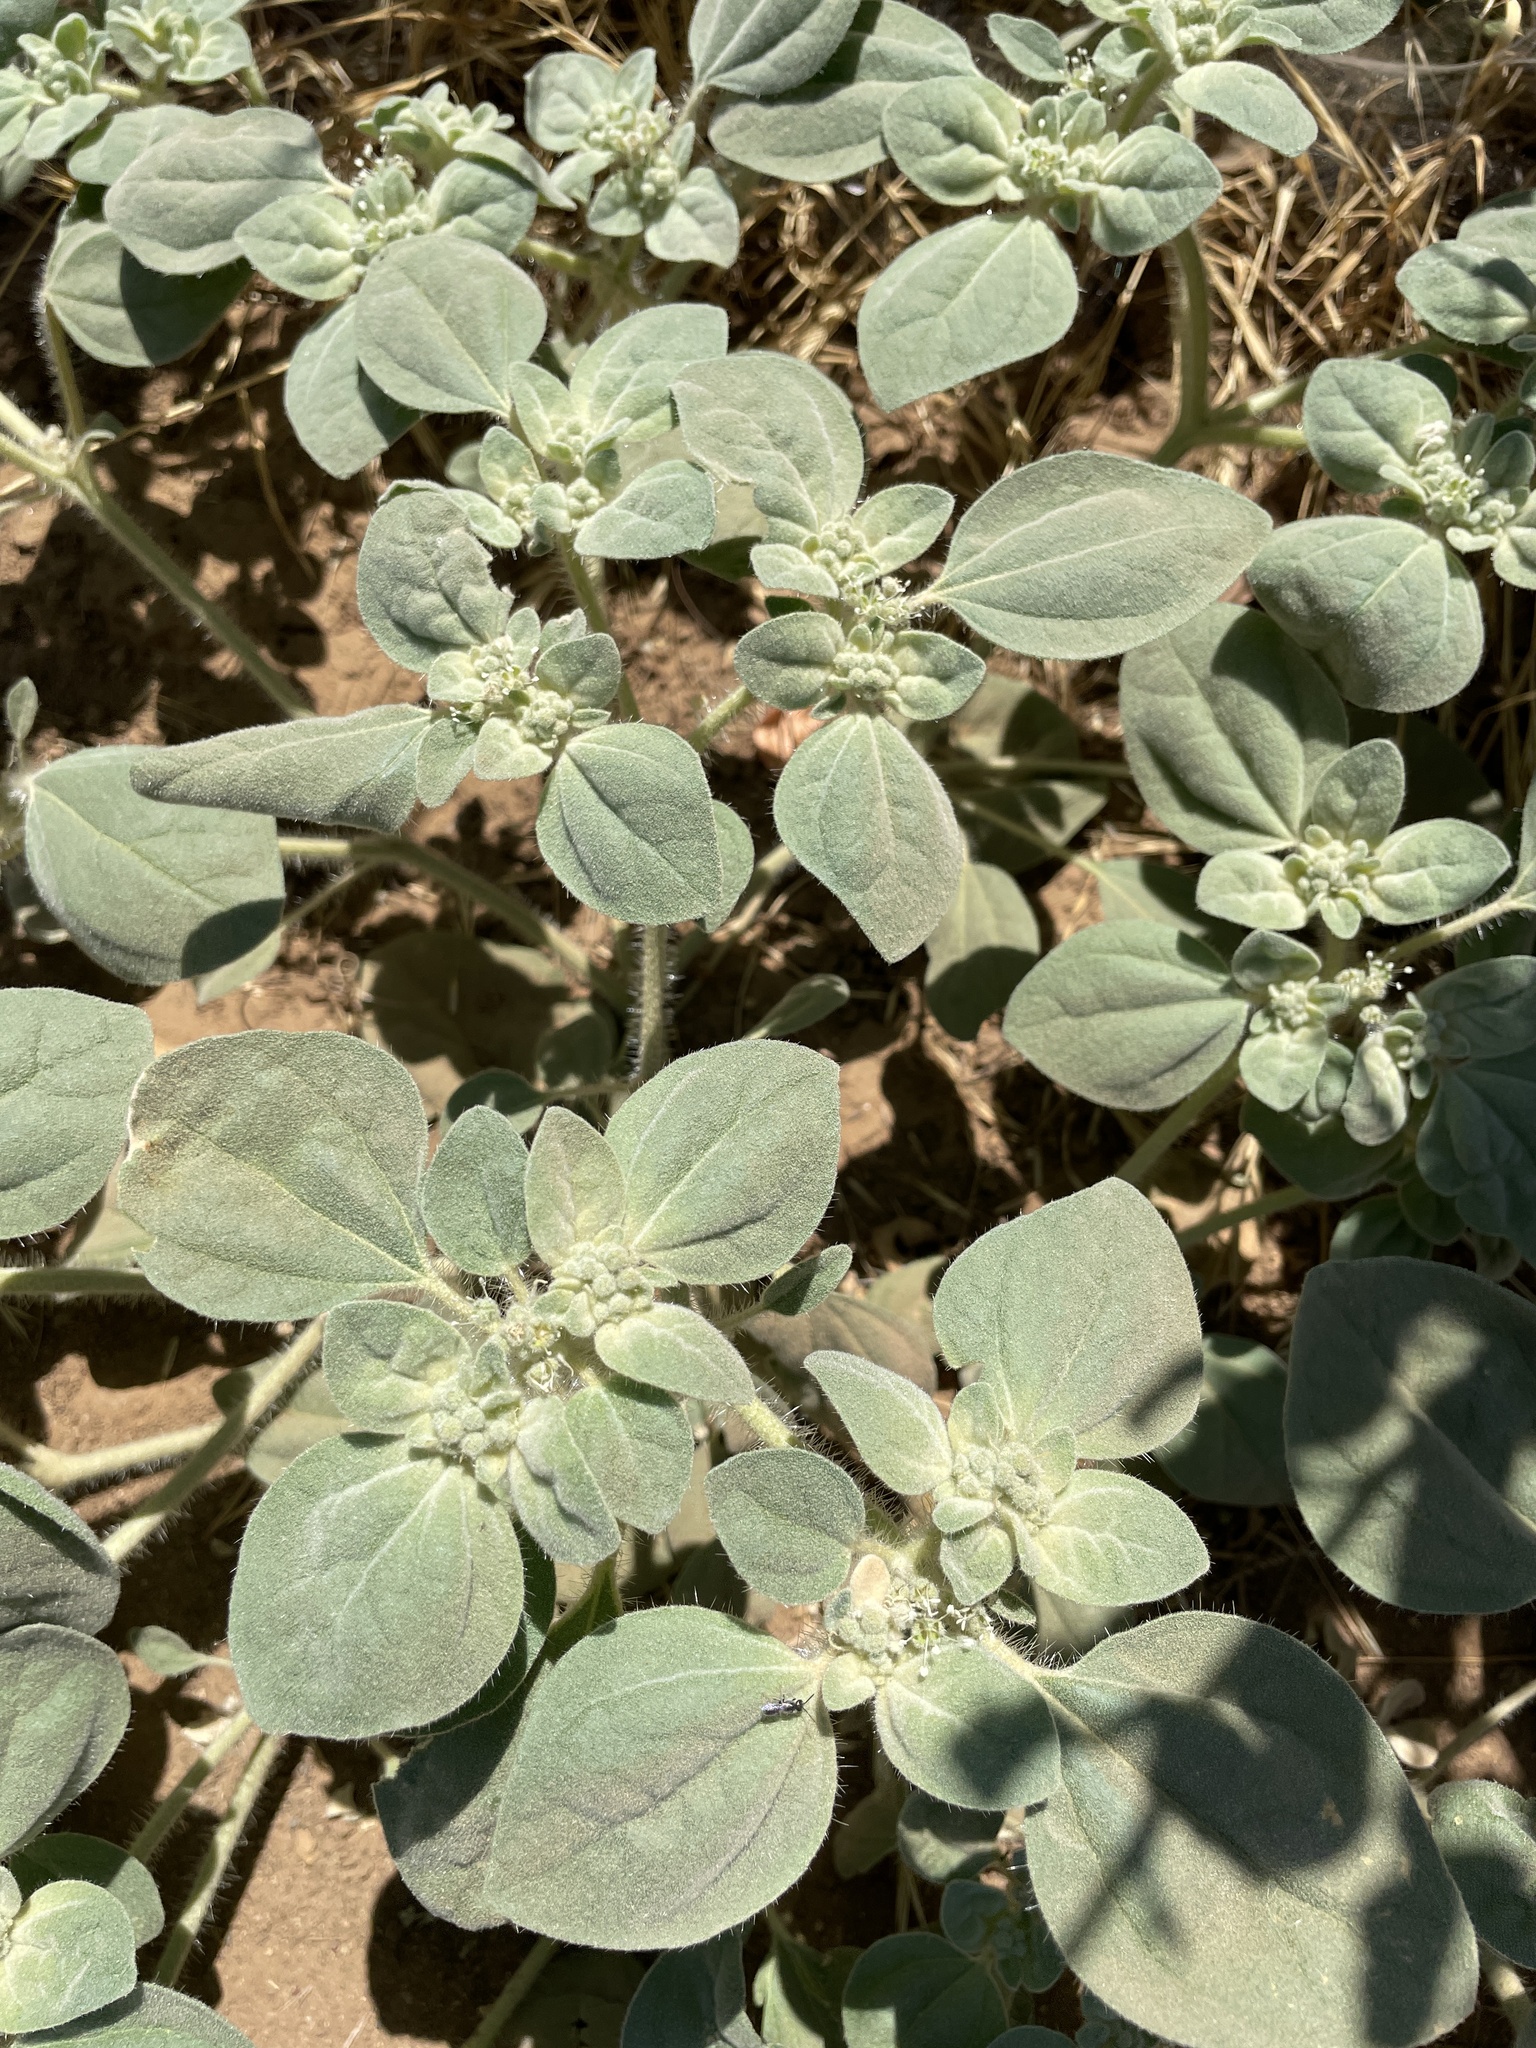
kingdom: Plantae
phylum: Tracheophyta
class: Magnoliopsida
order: Malpighiales
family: Euphorbiaceae
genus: Croton
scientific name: Croton setiger
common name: Dove weed
